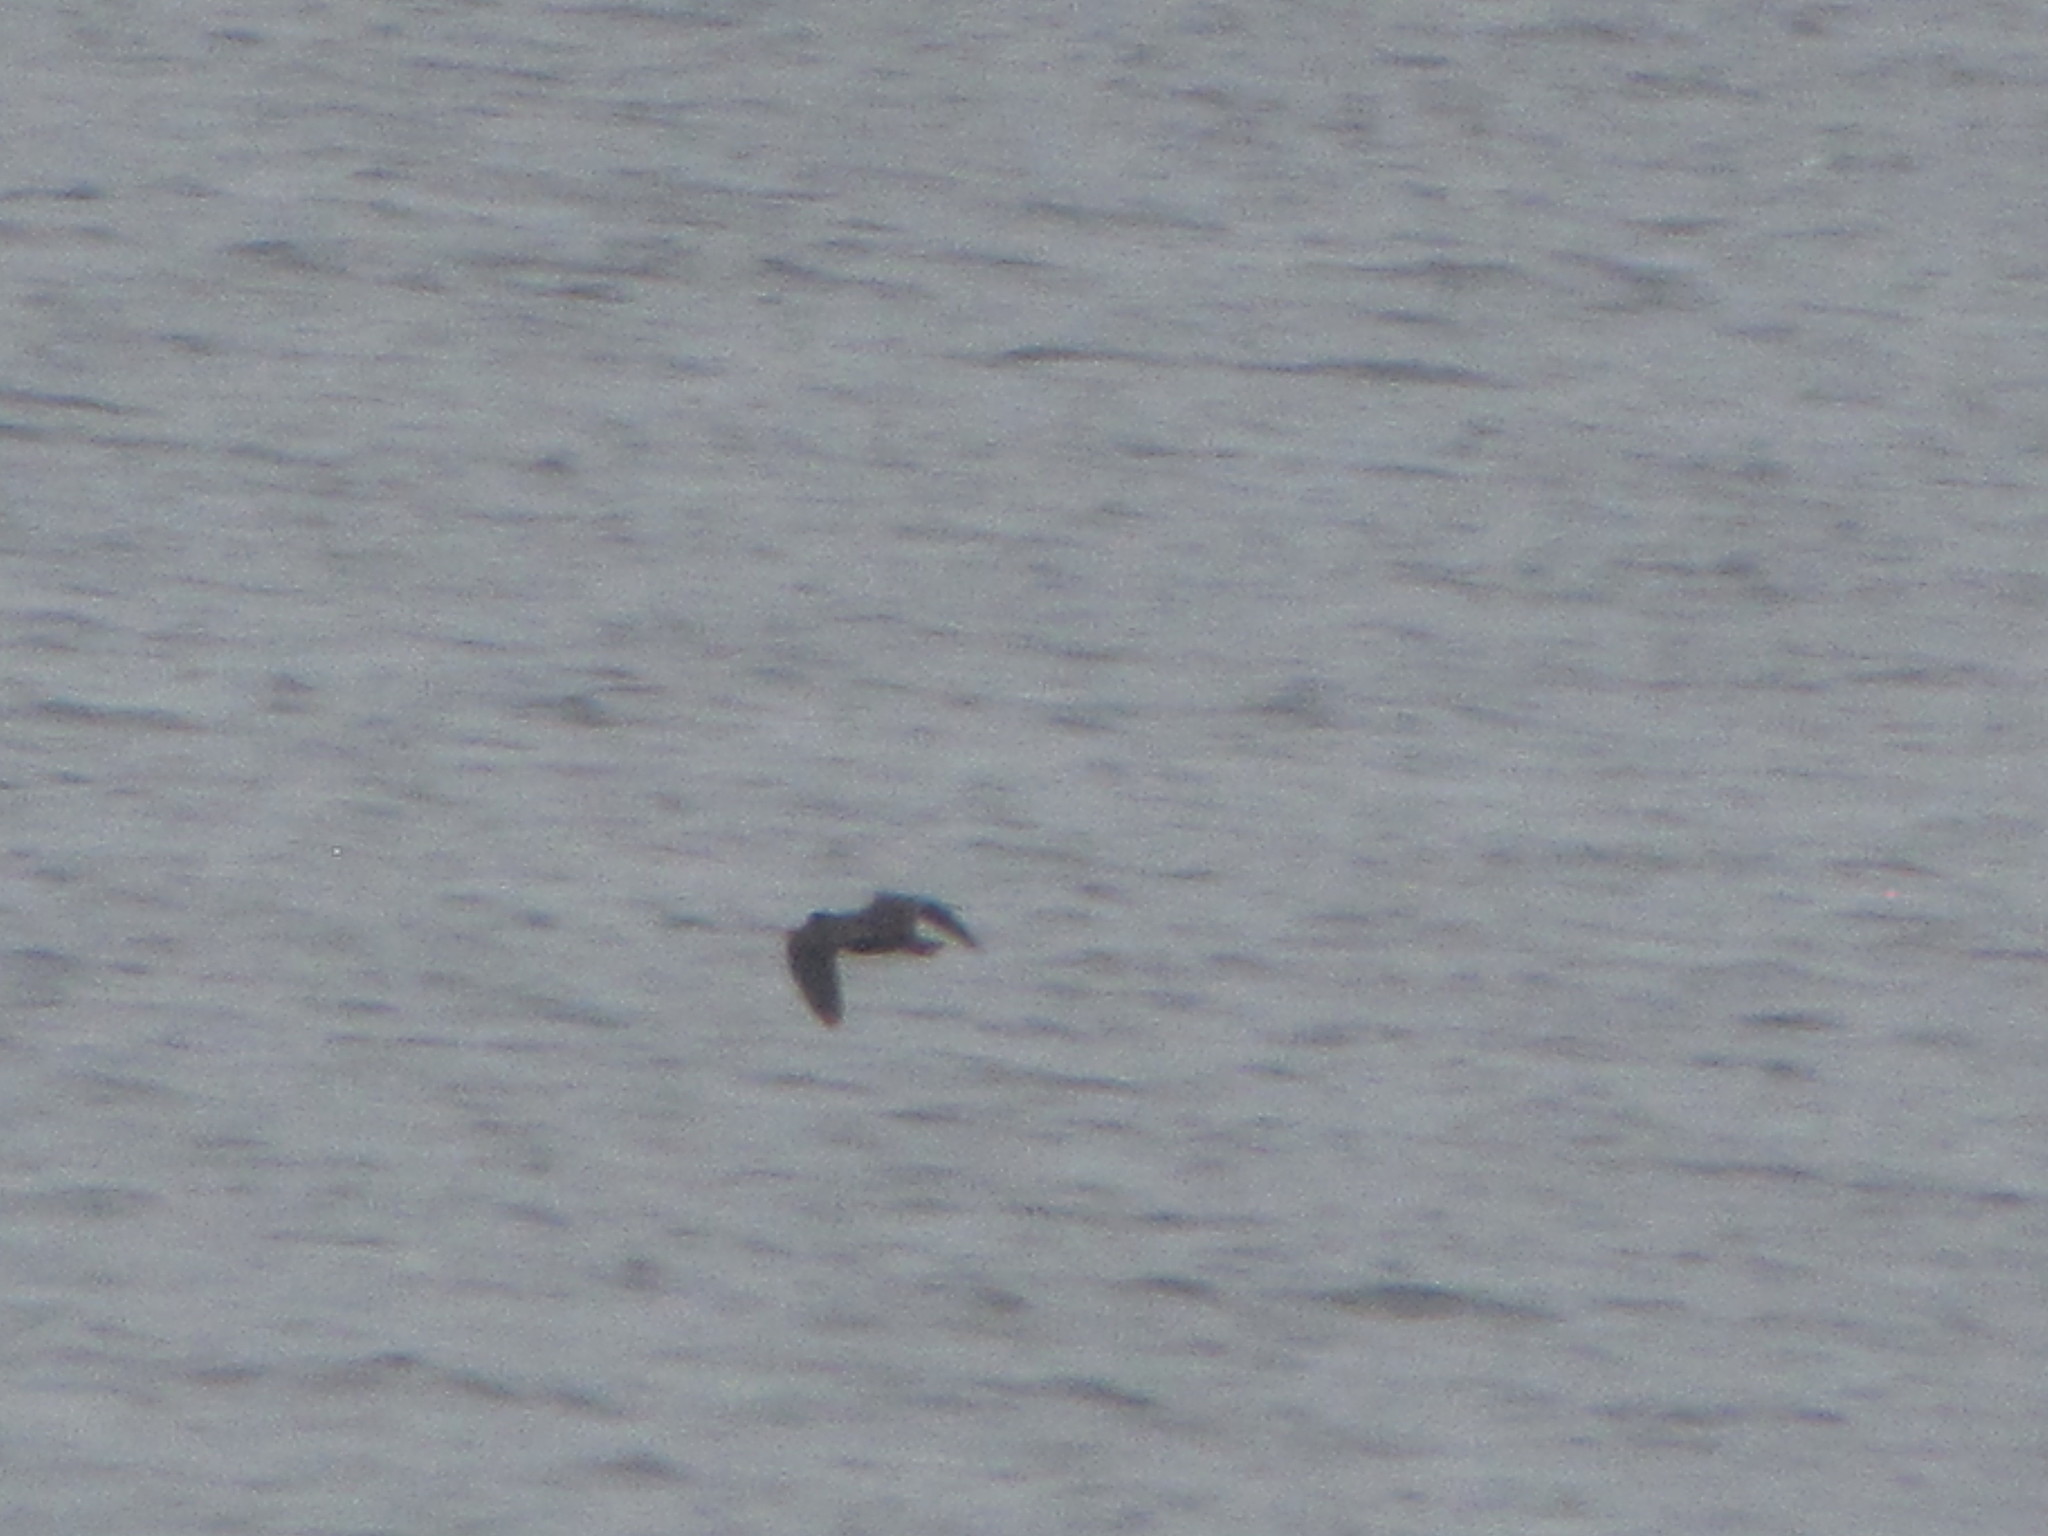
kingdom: Animalia
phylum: Chordata
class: Aves
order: Charadriiformes
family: Haematopodidae
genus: Haematopus
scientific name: Haematopus bachmani
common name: Black oystercatcher
